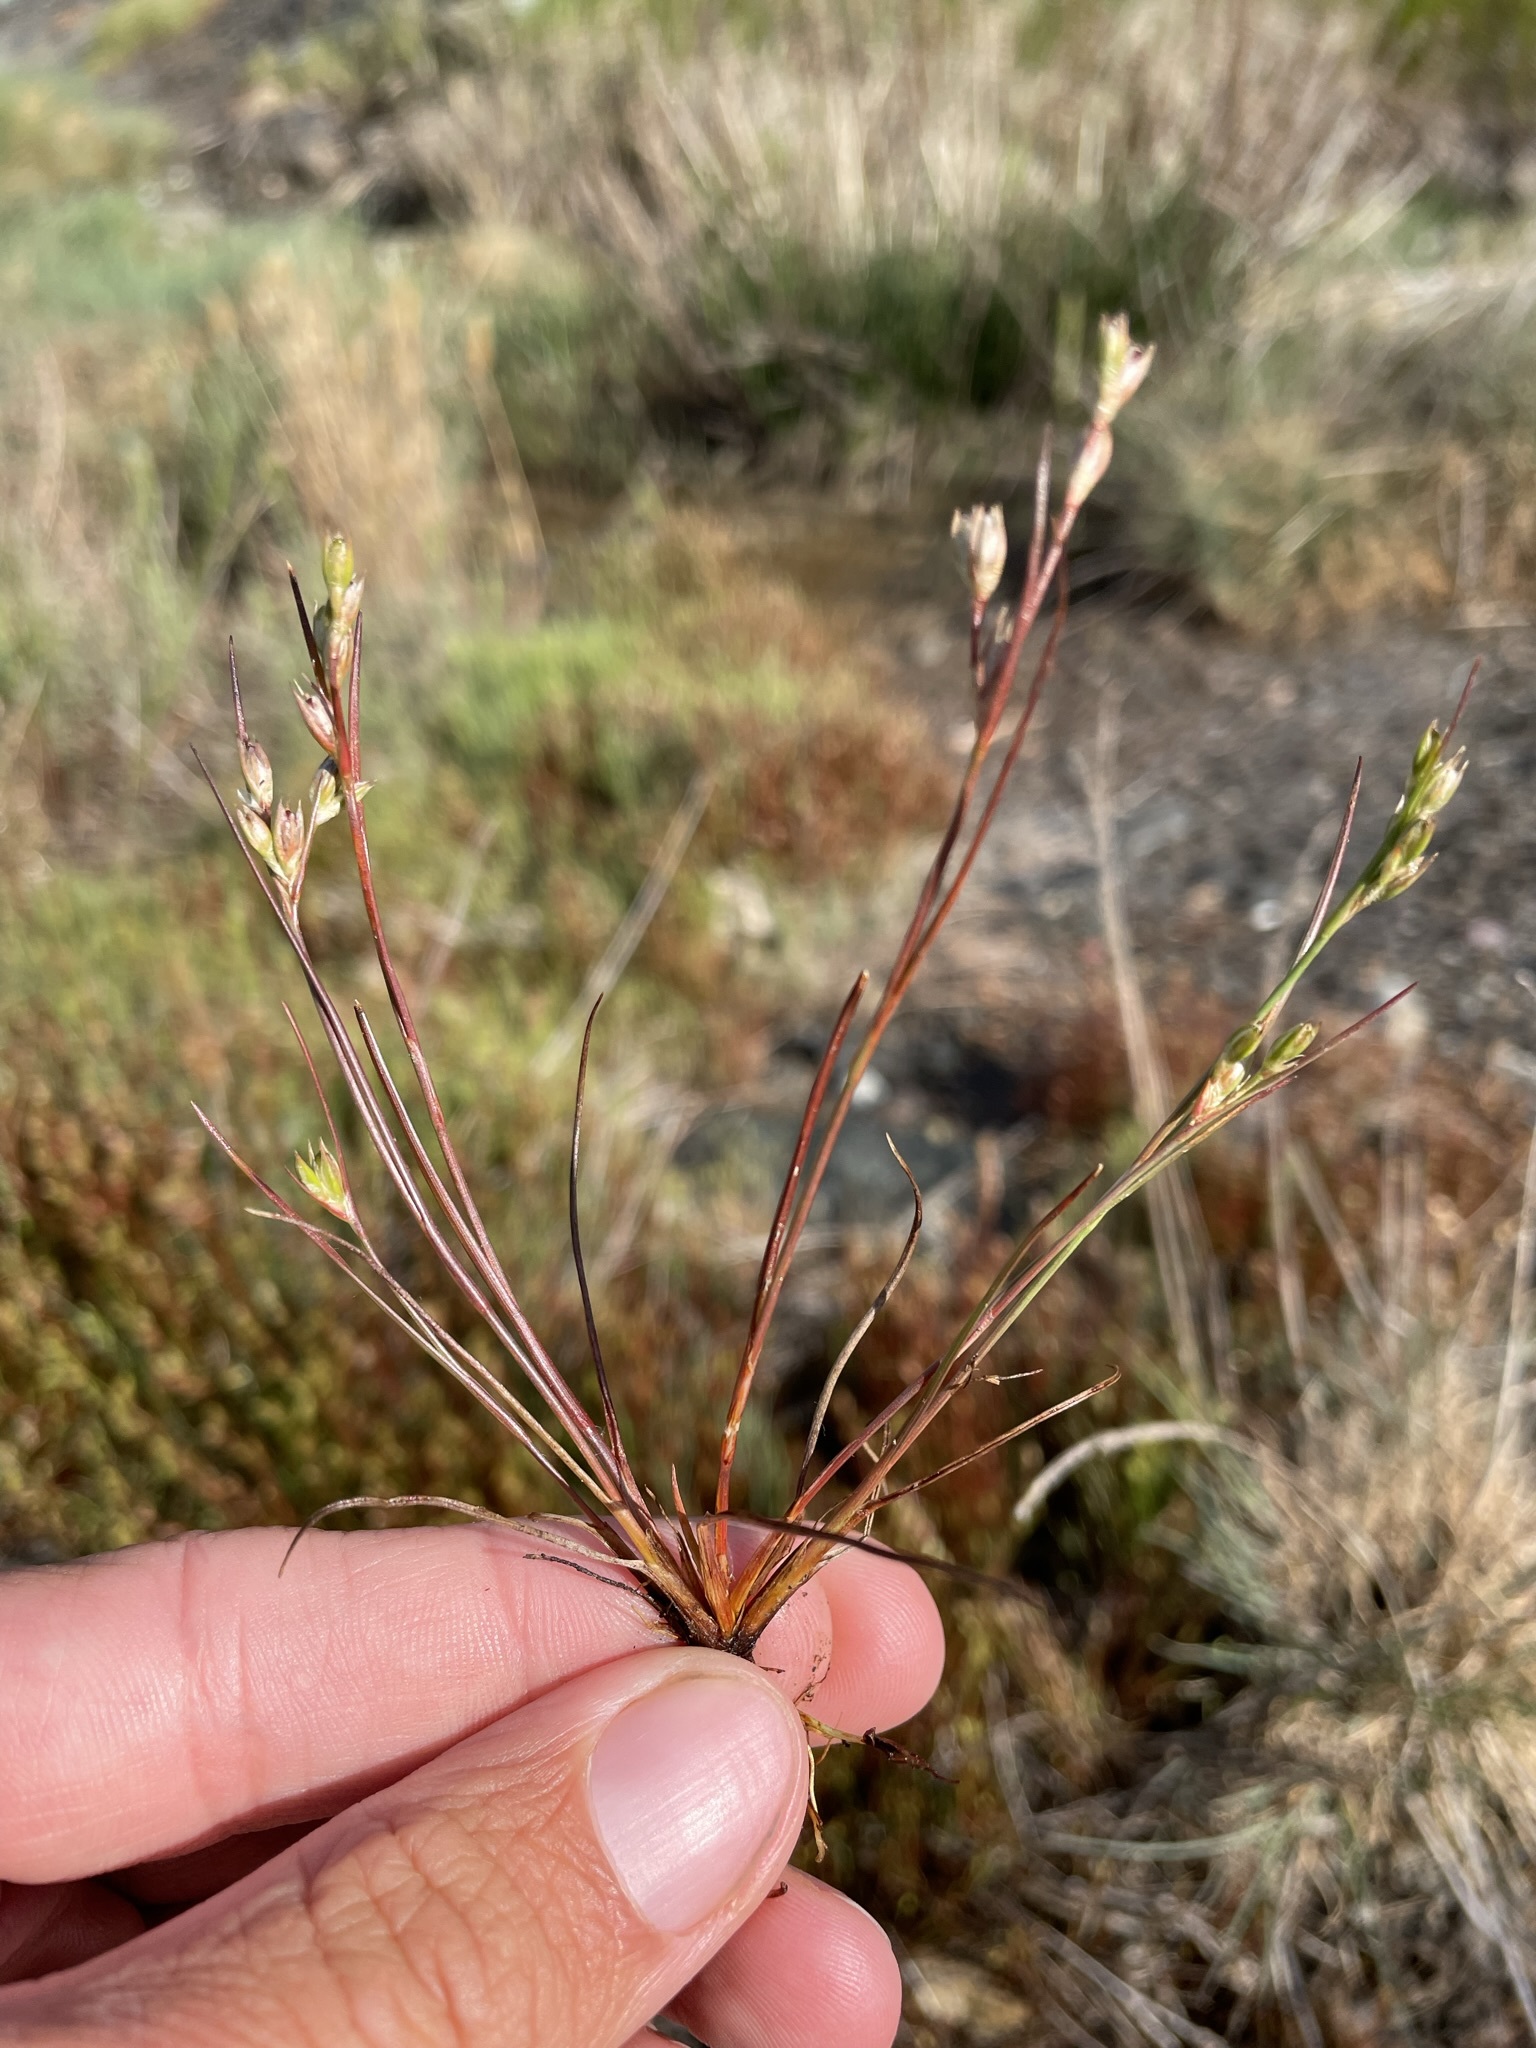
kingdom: Plantae
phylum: Tracheophyta
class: Liliopsida
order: Poales
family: Juncaceae
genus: Juncus
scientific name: Juncus bufonius
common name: Toad rush
